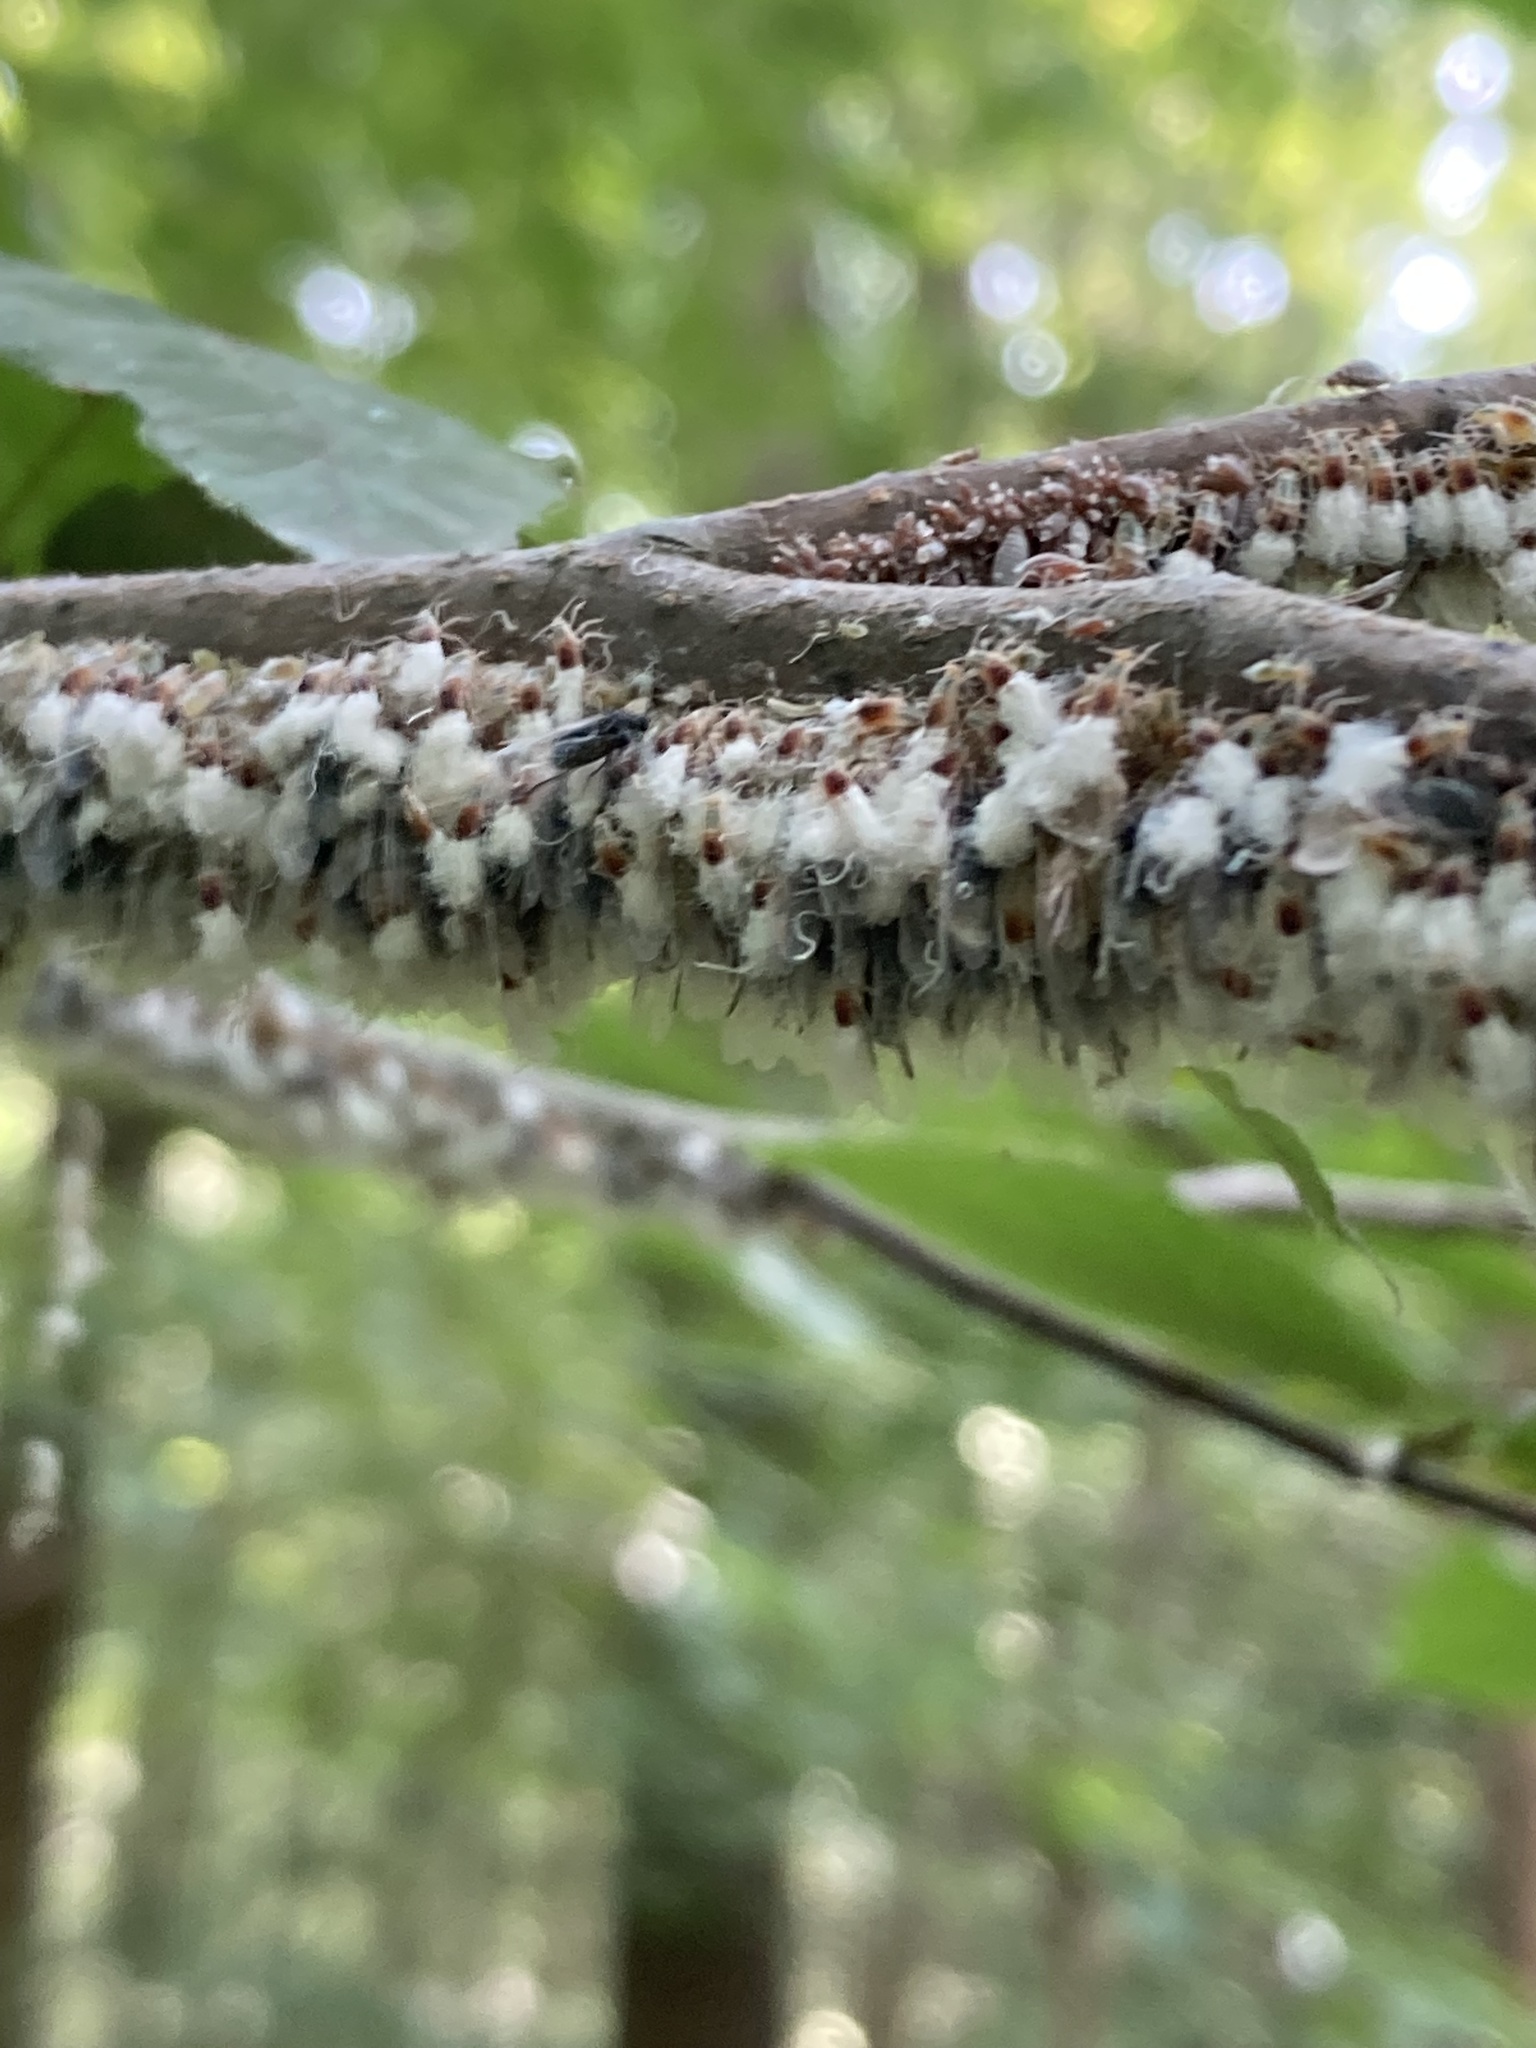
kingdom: Animalia
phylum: Arthropoda
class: Insecta
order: Hemiptera
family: Aphididae
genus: Grylloprociphilus
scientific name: Grylloprociphilus imbricator
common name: Beech blight aphid
